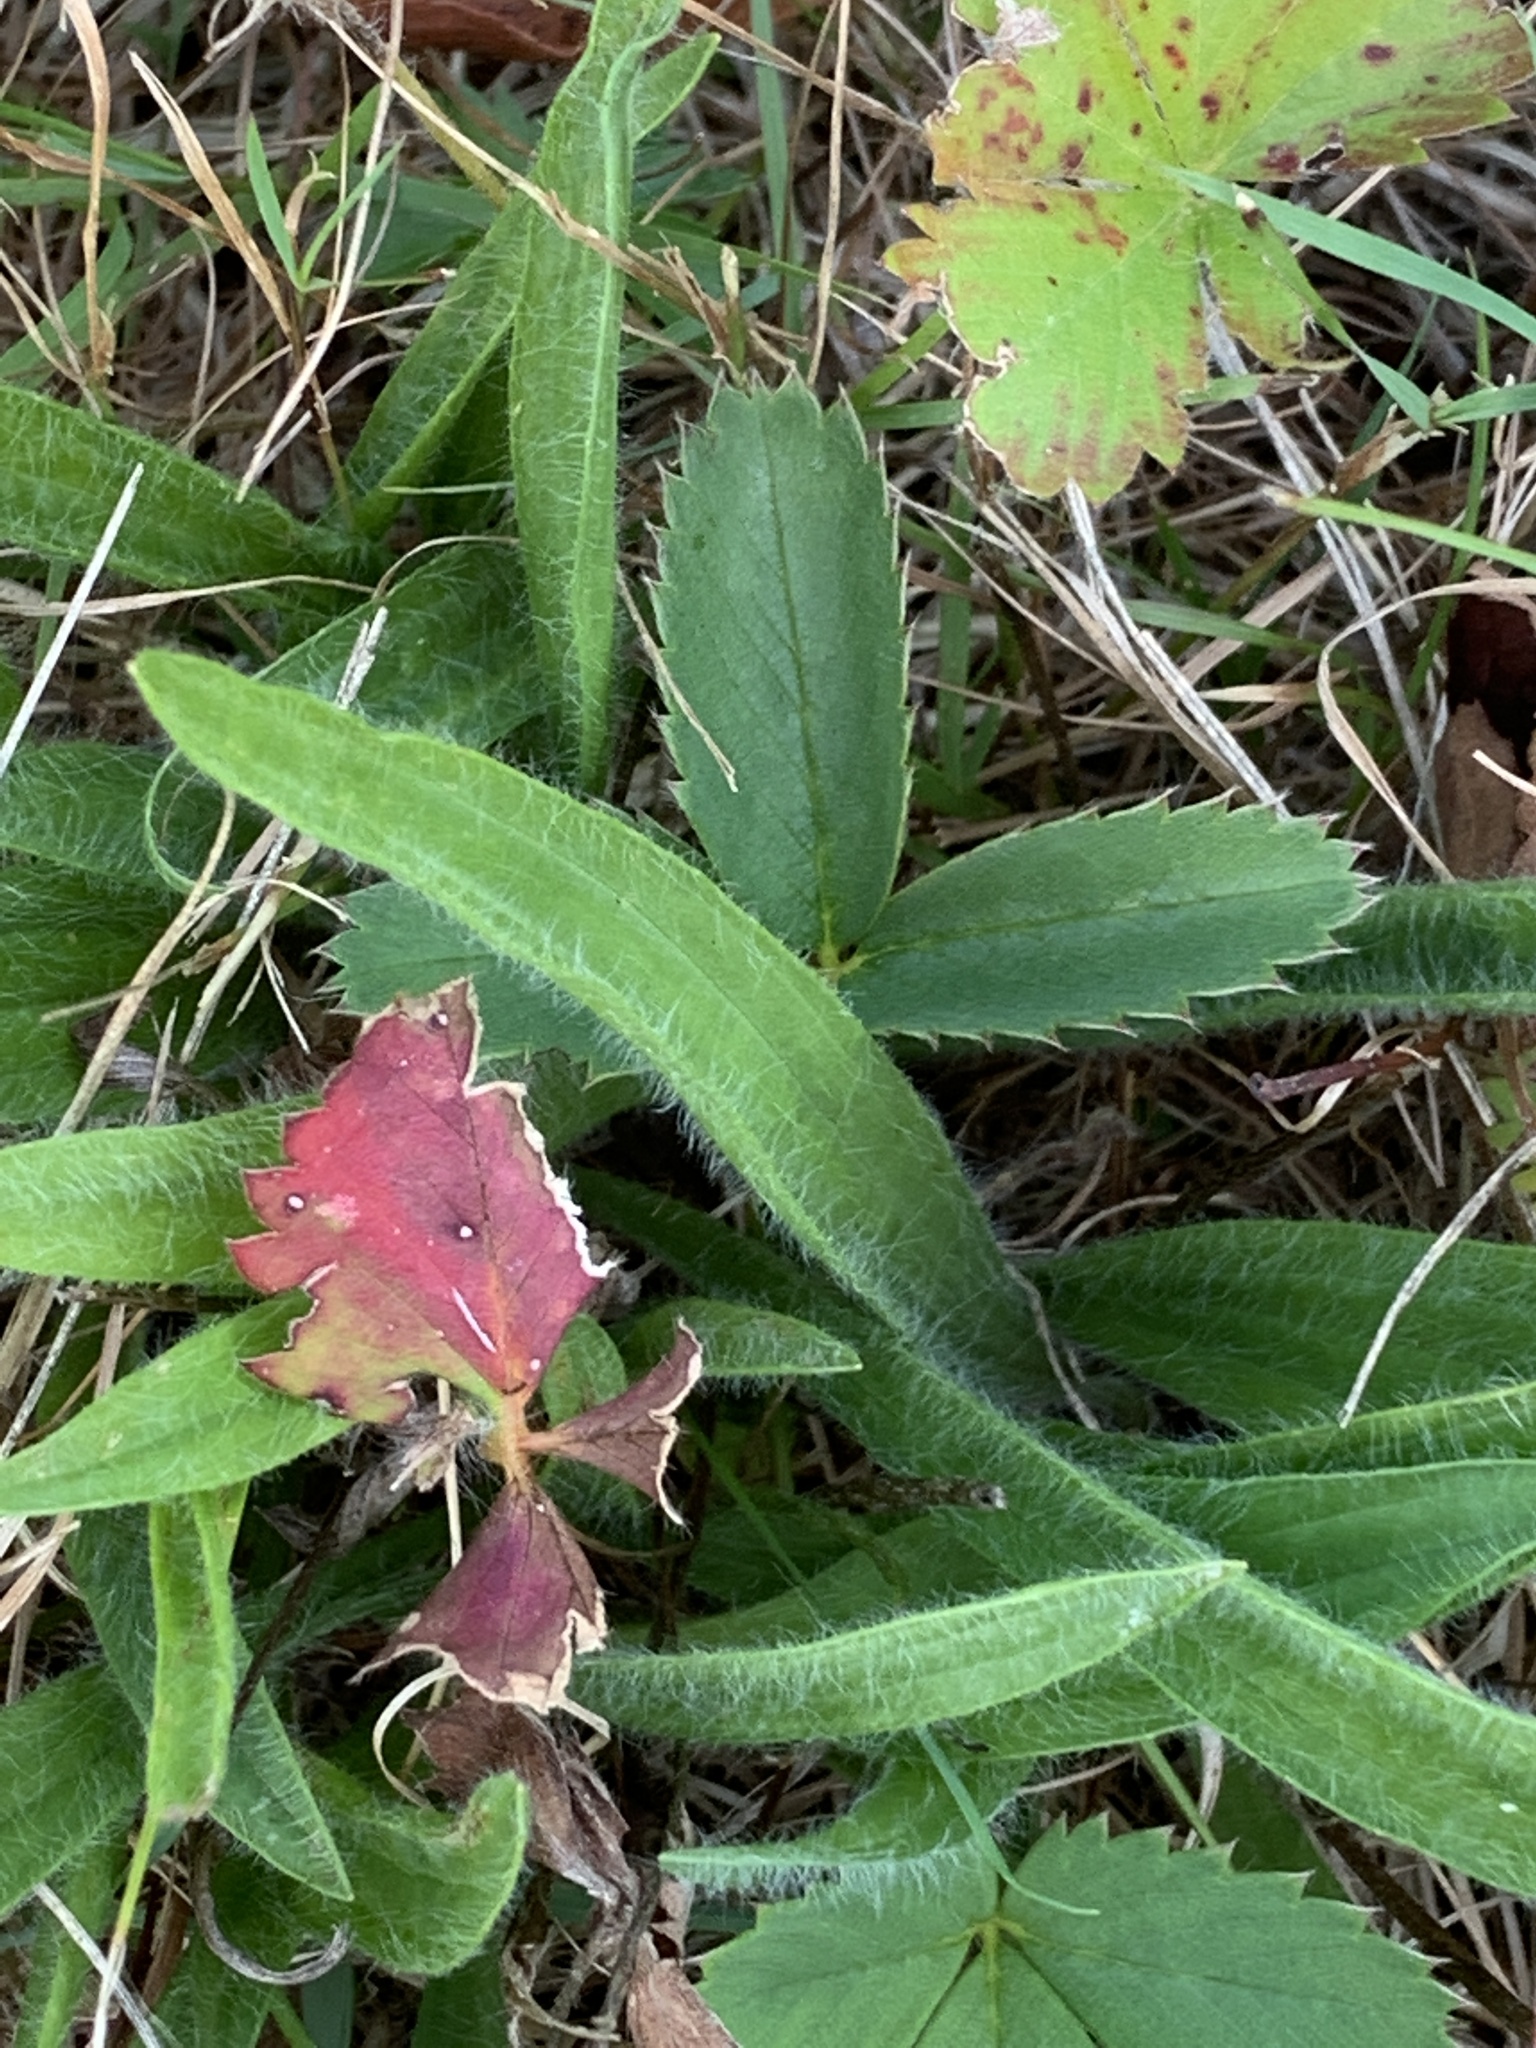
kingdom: Plantae
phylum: Tracheophyta
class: Magnoliopsida
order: Rosales
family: Rosaceae
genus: Fragaria
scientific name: Fragaria virginiana
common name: Thickleaved wild strawberry
